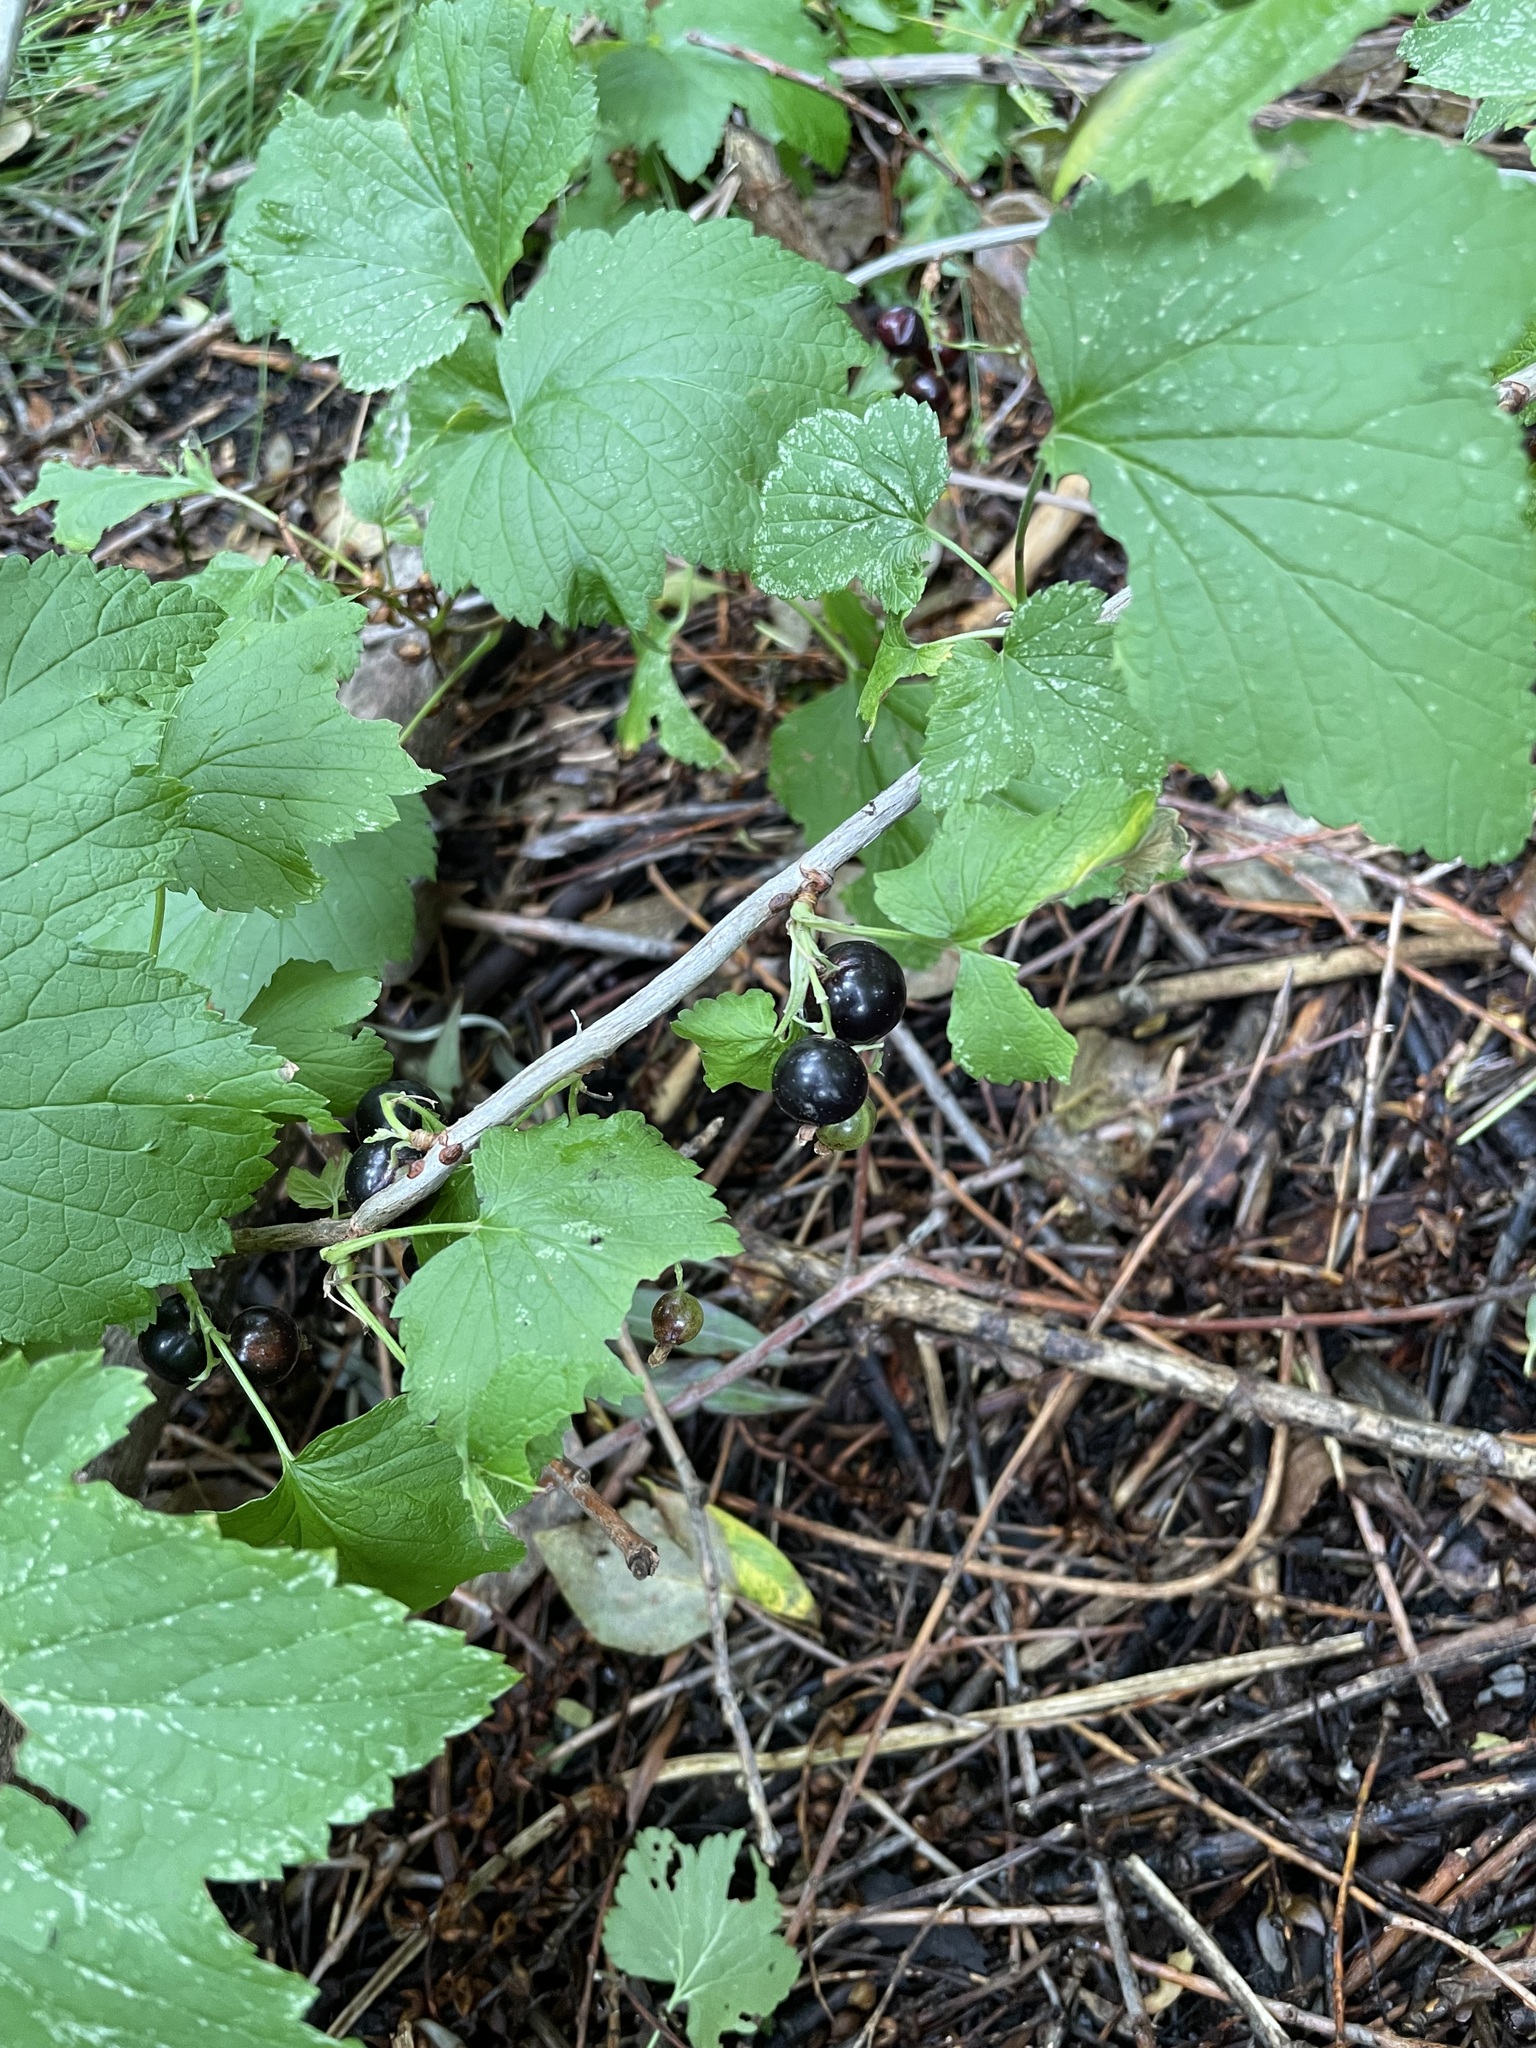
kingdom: Plantae
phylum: Tracheophyta
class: Magnoliopsida
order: Saxifragales
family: Grossulariaceae
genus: Ribes
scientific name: Ribes nigrum
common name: Black currant
